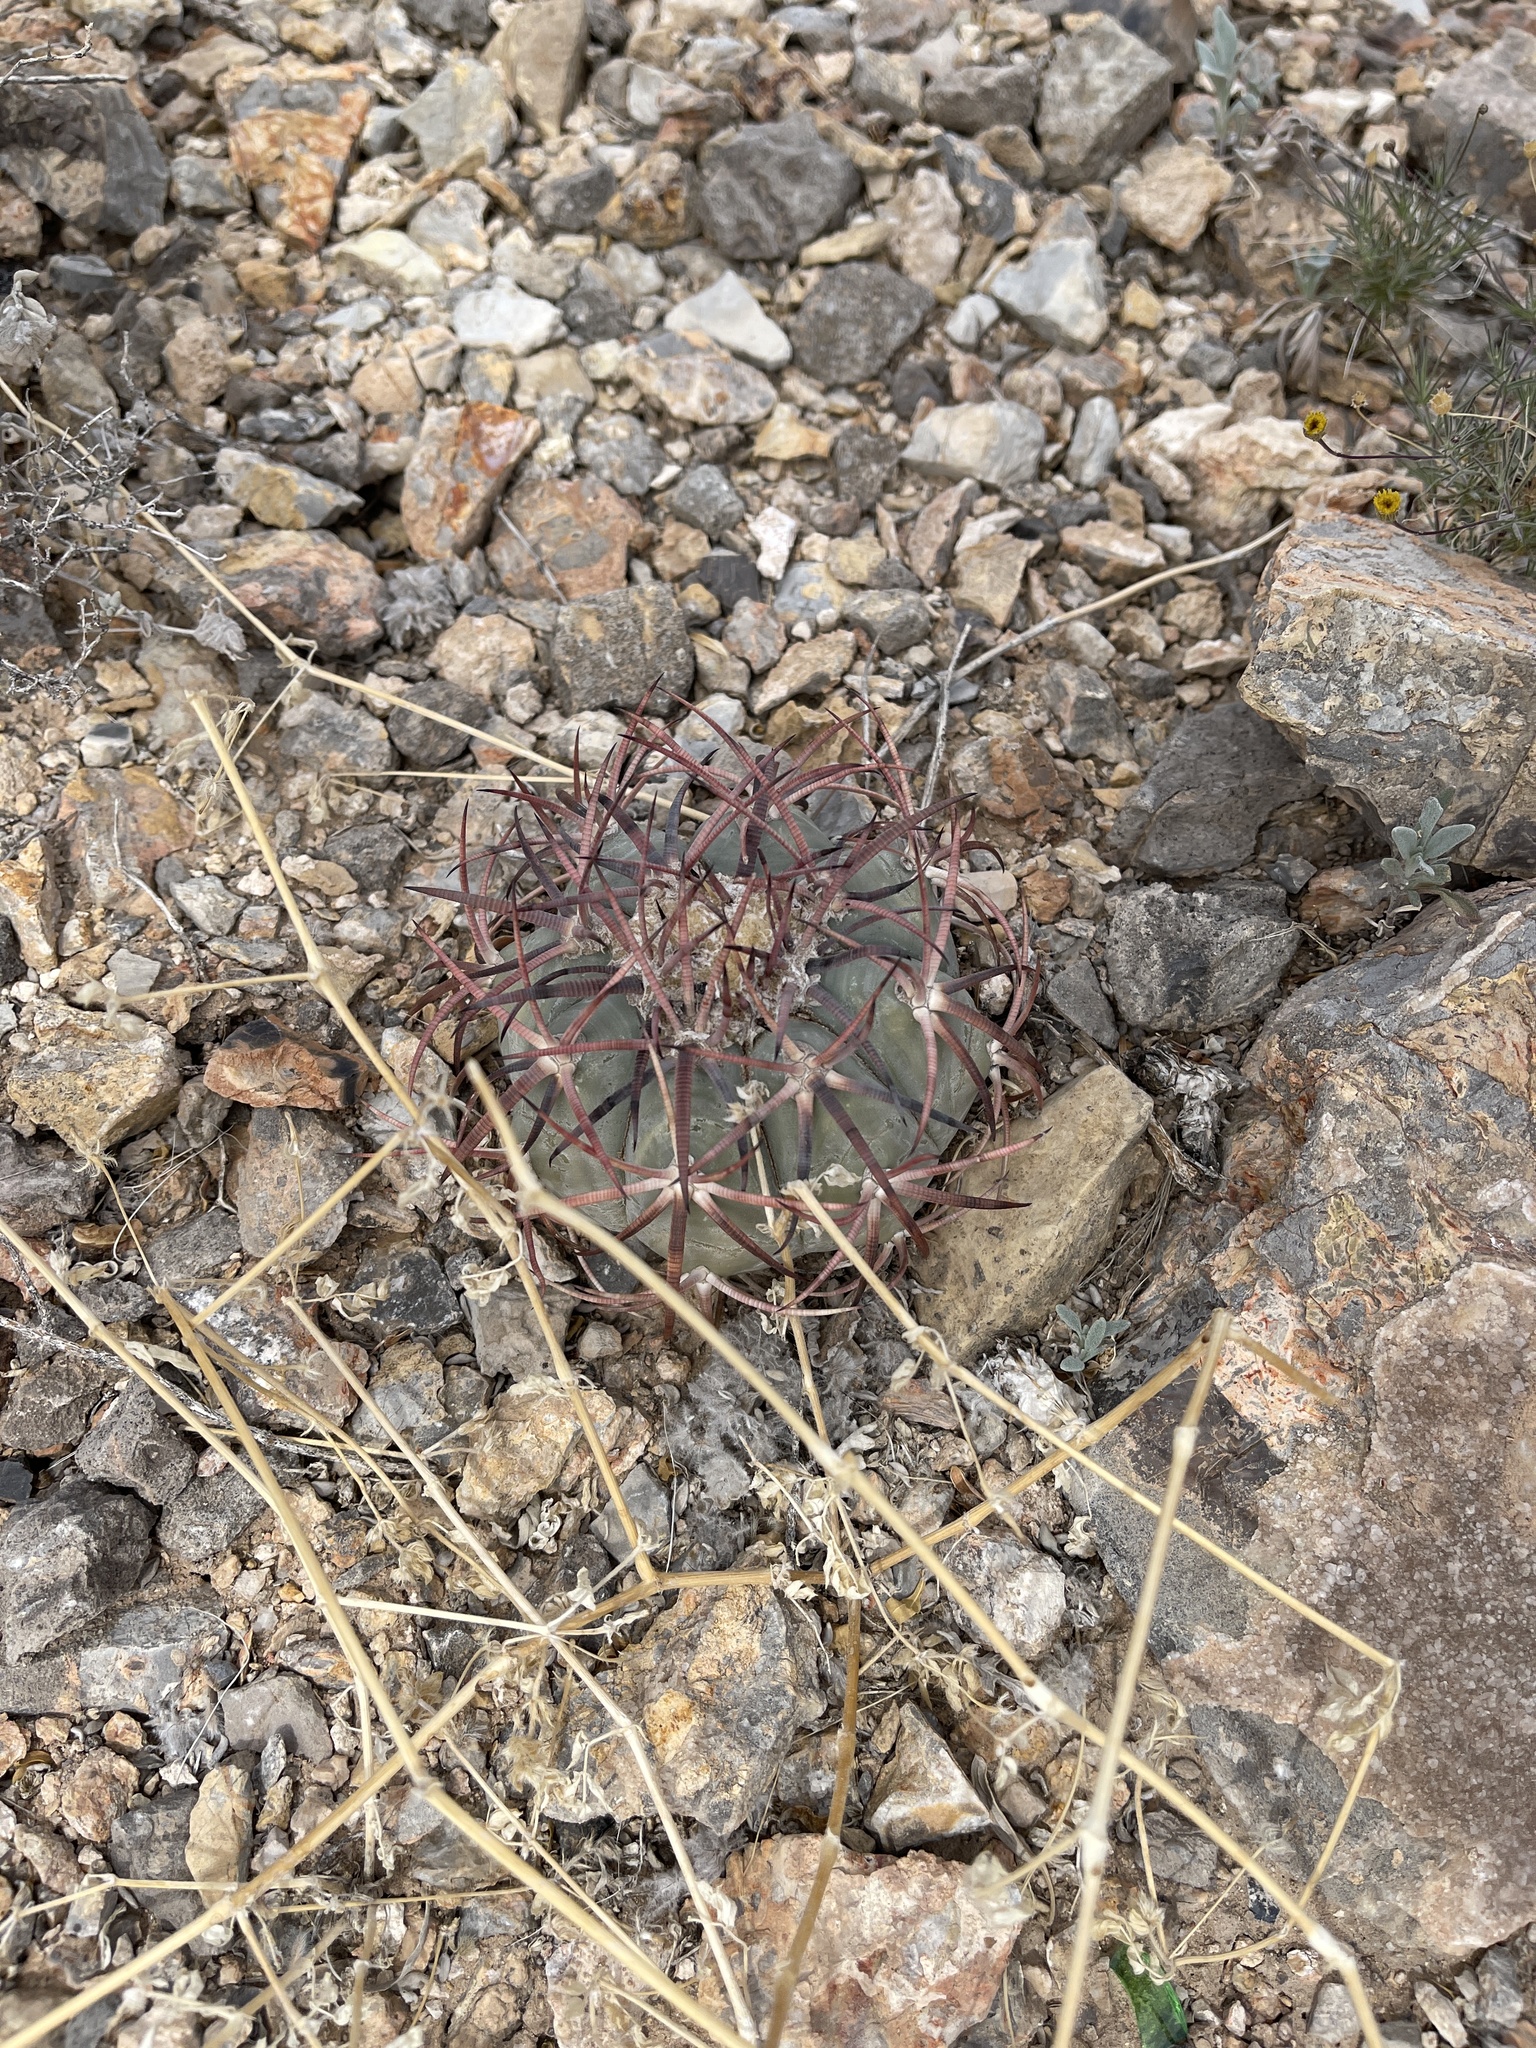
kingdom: Plantae
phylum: Tracheophyta
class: Magnoliopsida
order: Caryophyllales
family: Cactaceae
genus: Echinocactus
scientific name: Echinocactus horizonthalonius
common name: Devilshead
